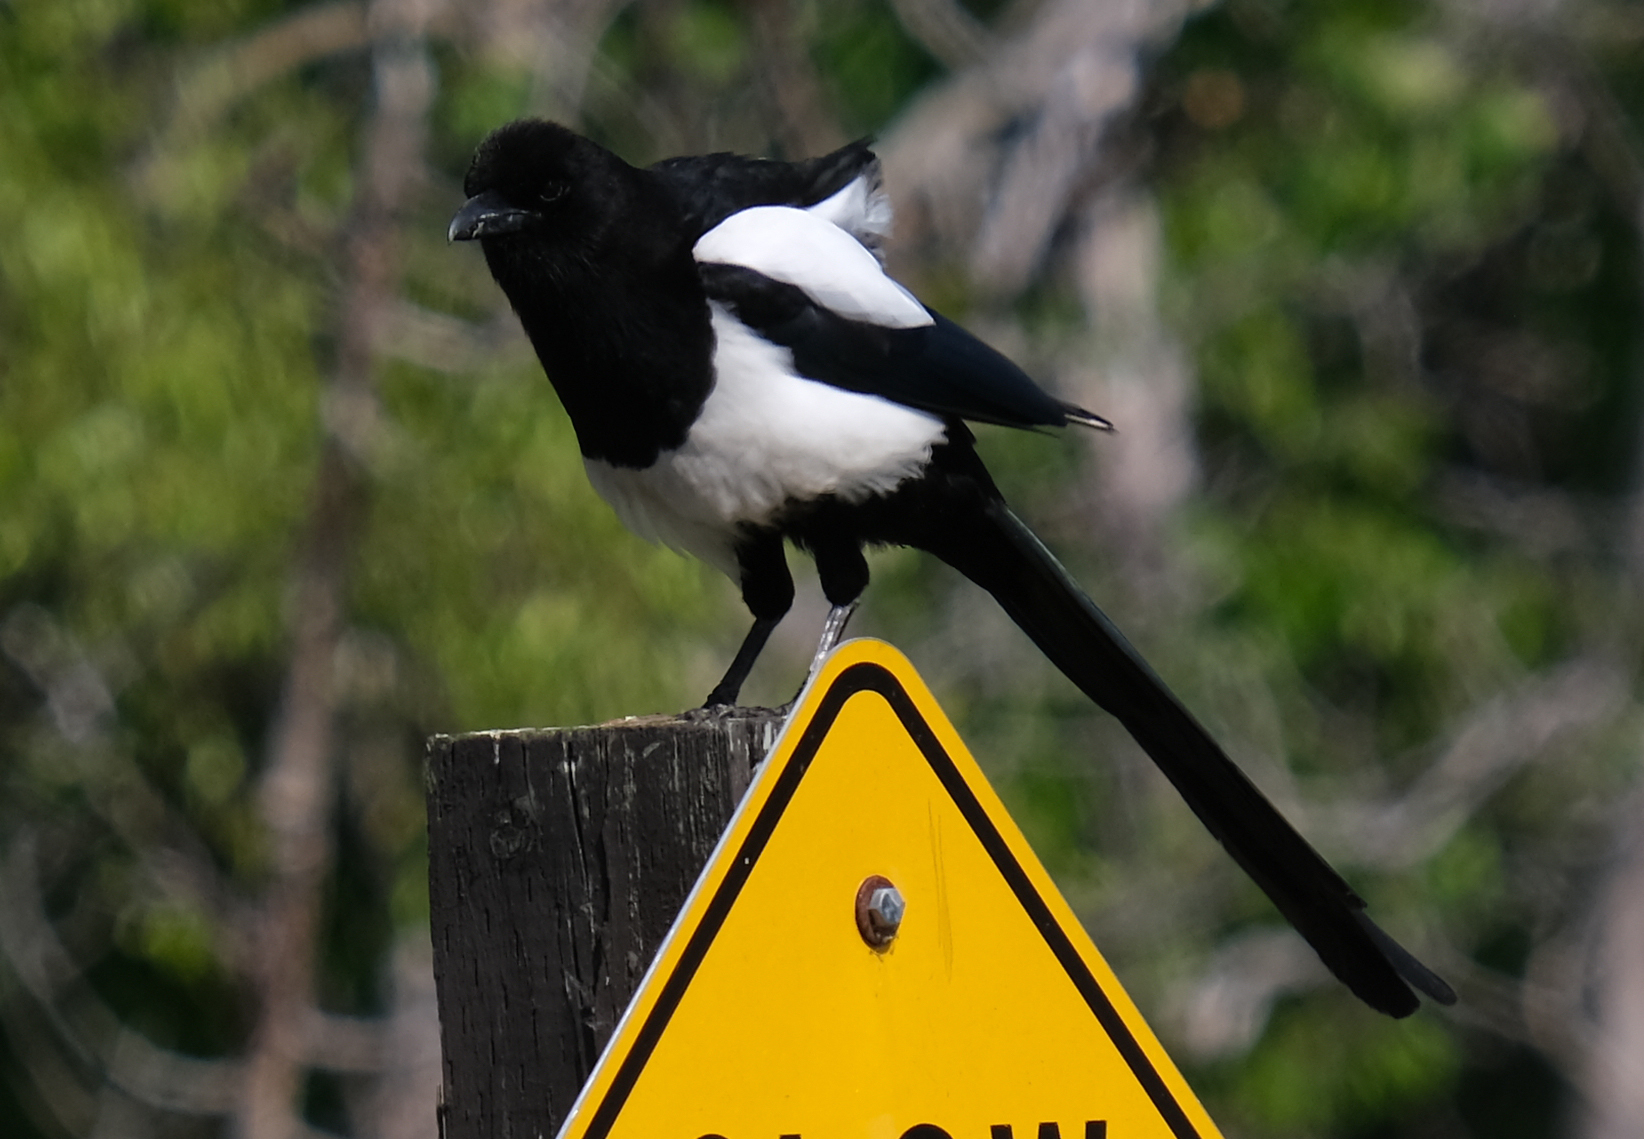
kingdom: Animalia
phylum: Chordata
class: Aves
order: Passeriformes
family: Corvidae
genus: Pica
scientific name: Pica hudsonia
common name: Black-billed magpie
